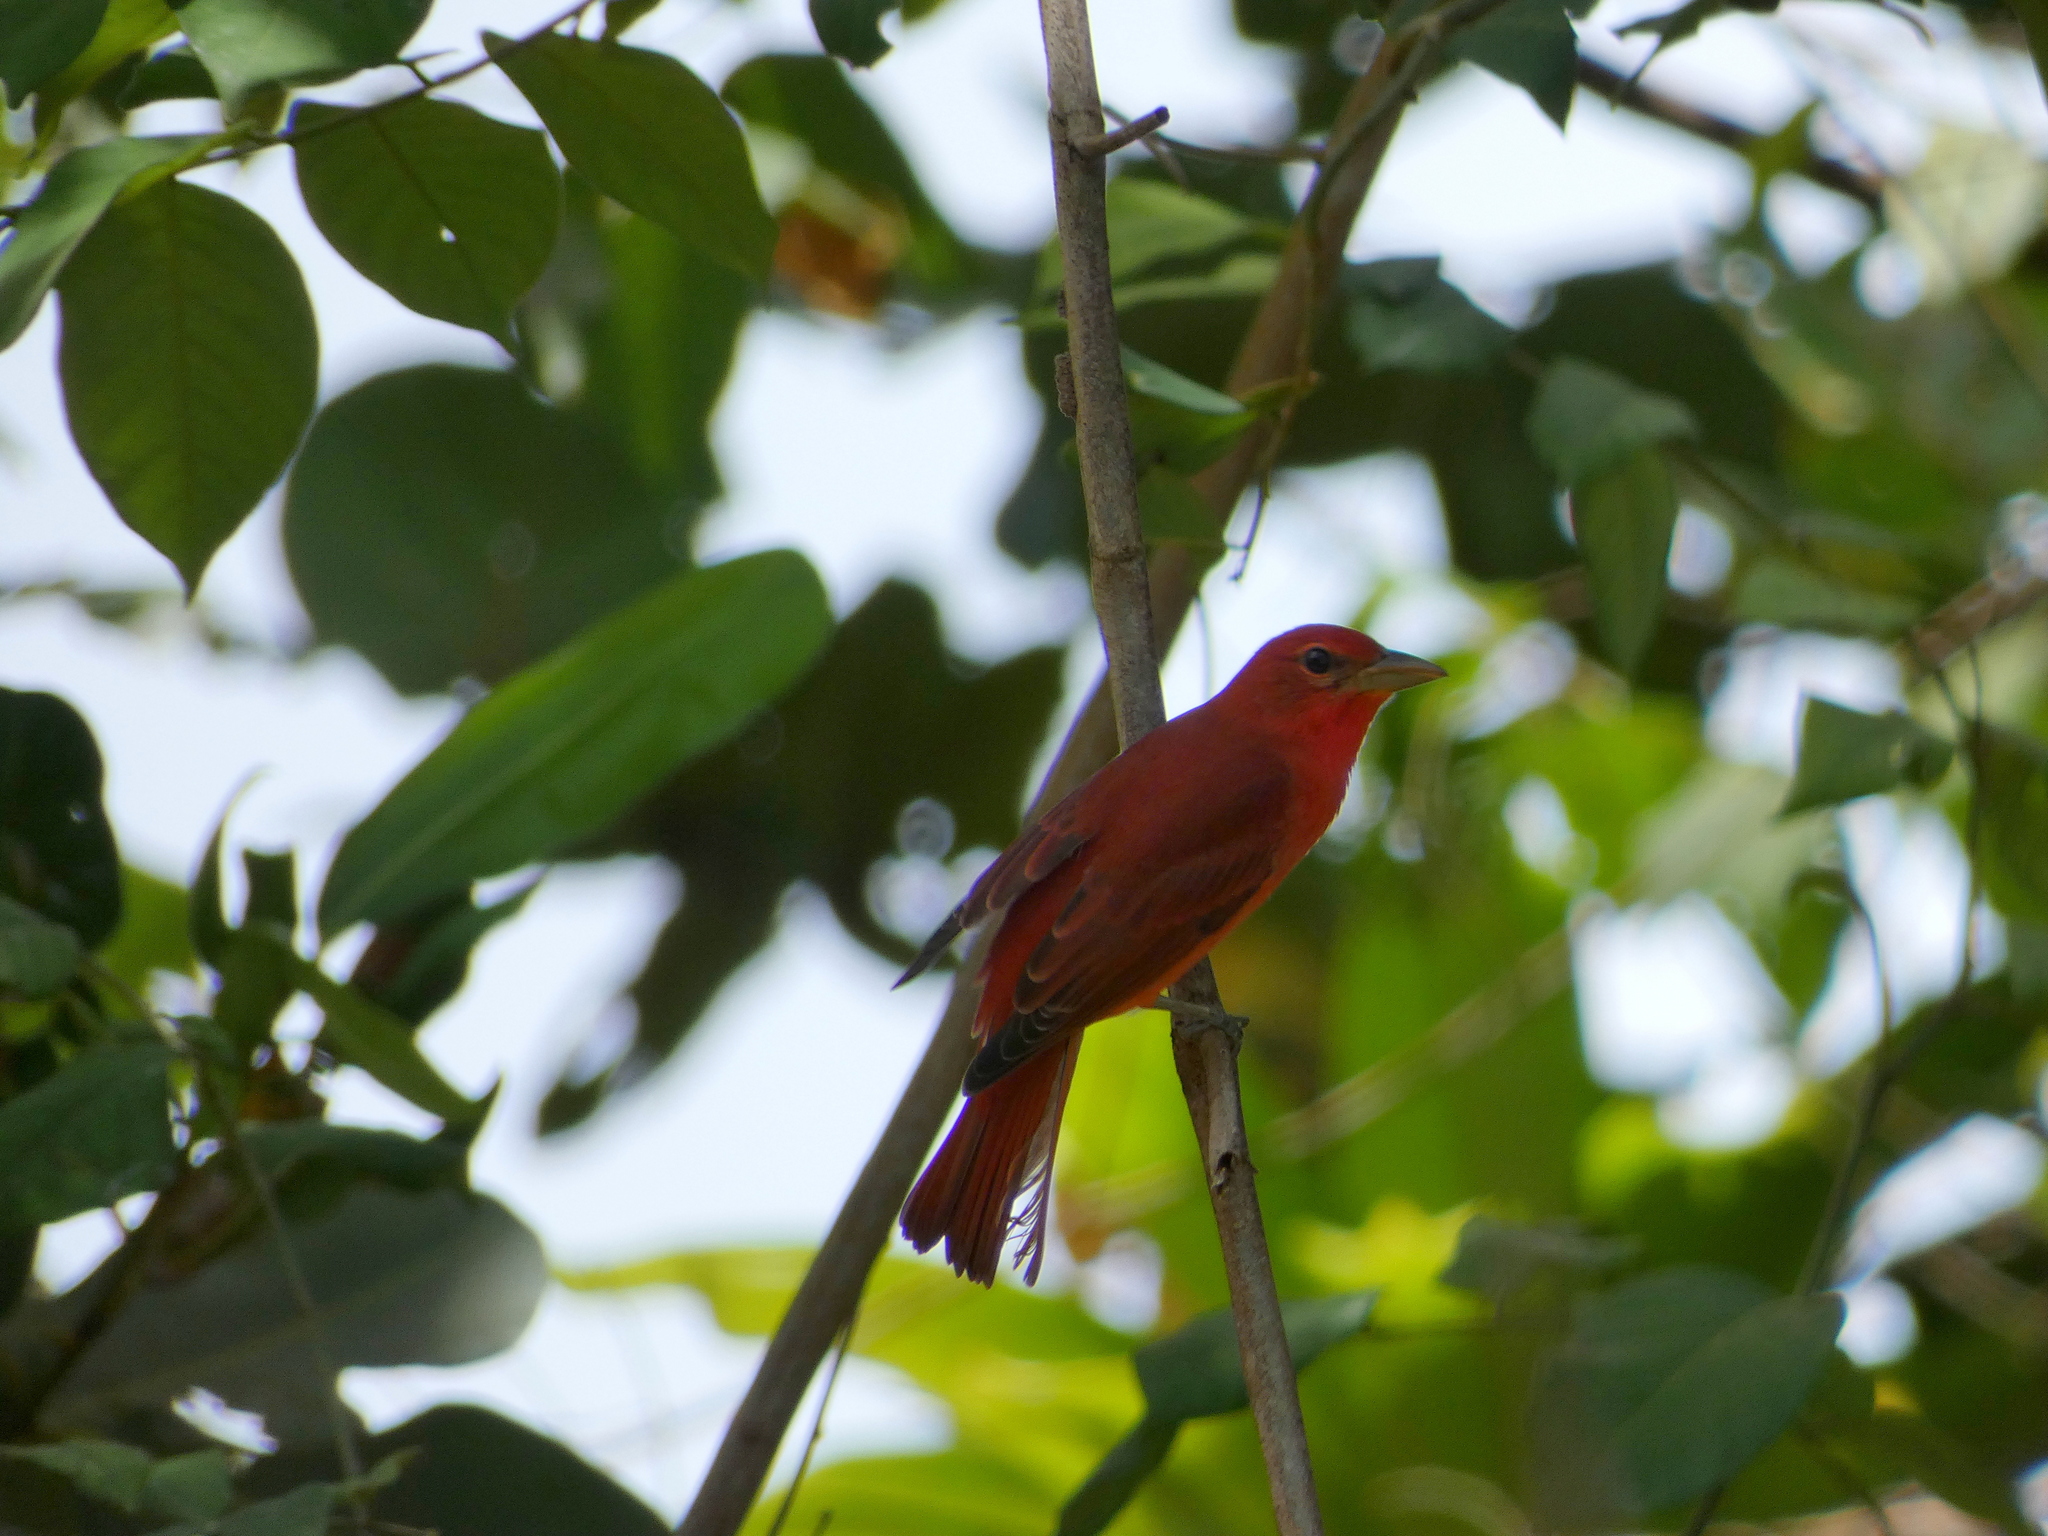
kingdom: Animalia
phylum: Chordata
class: Aves
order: Passeriformes
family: Cardinalidae
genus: Piranga
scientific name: Piranga rubra
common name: Summer tanager
